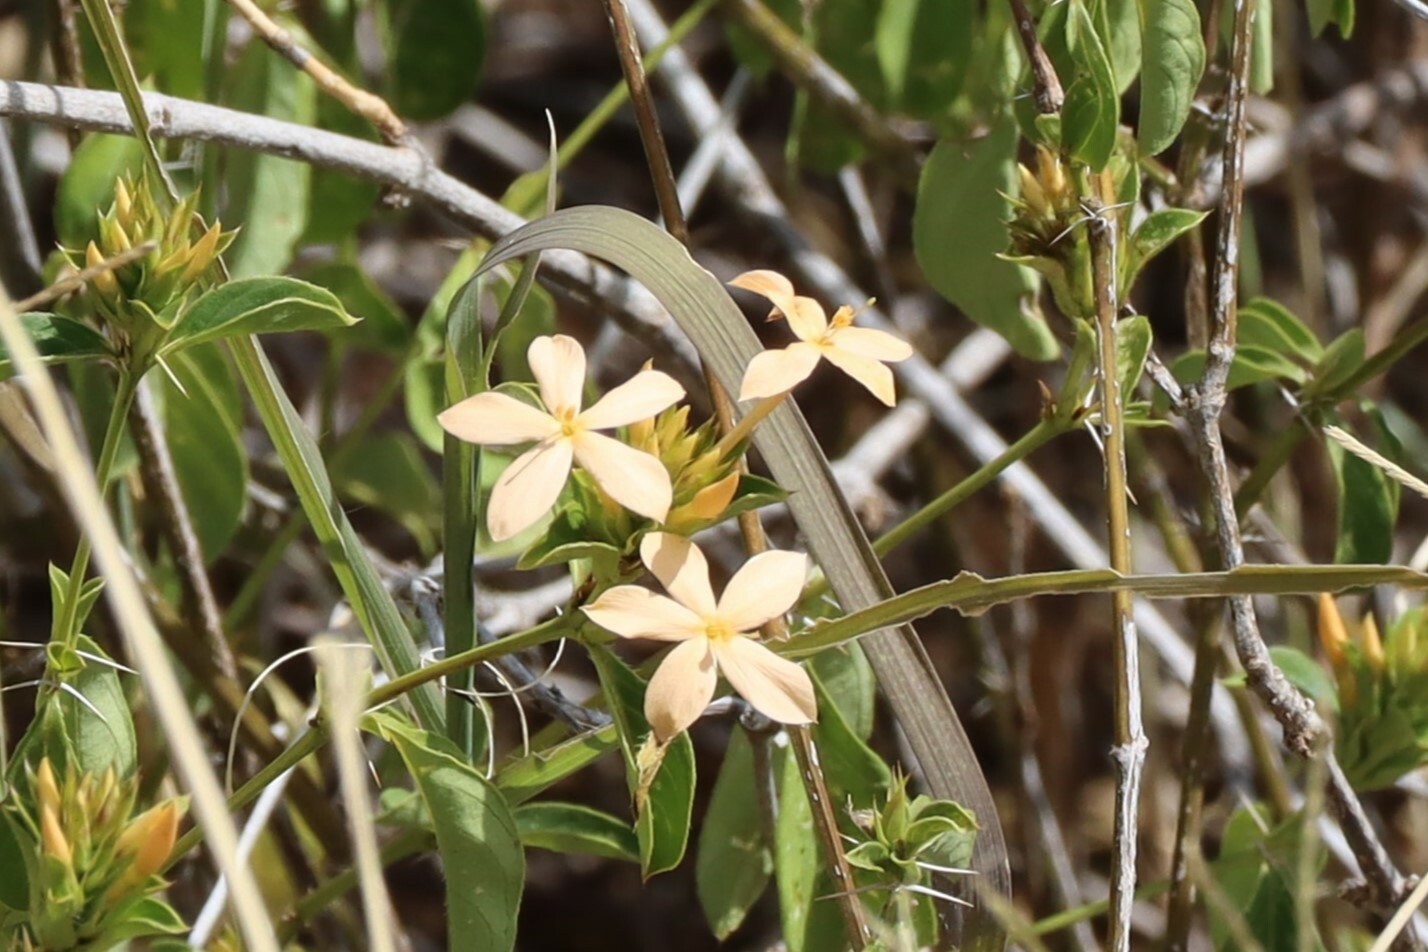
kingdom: Plantae
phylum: Tracheophyta
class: Magnoliopsida
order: Lamiales
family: Acanthaceae
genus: Barleria
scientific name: Barleria eranthemoides
